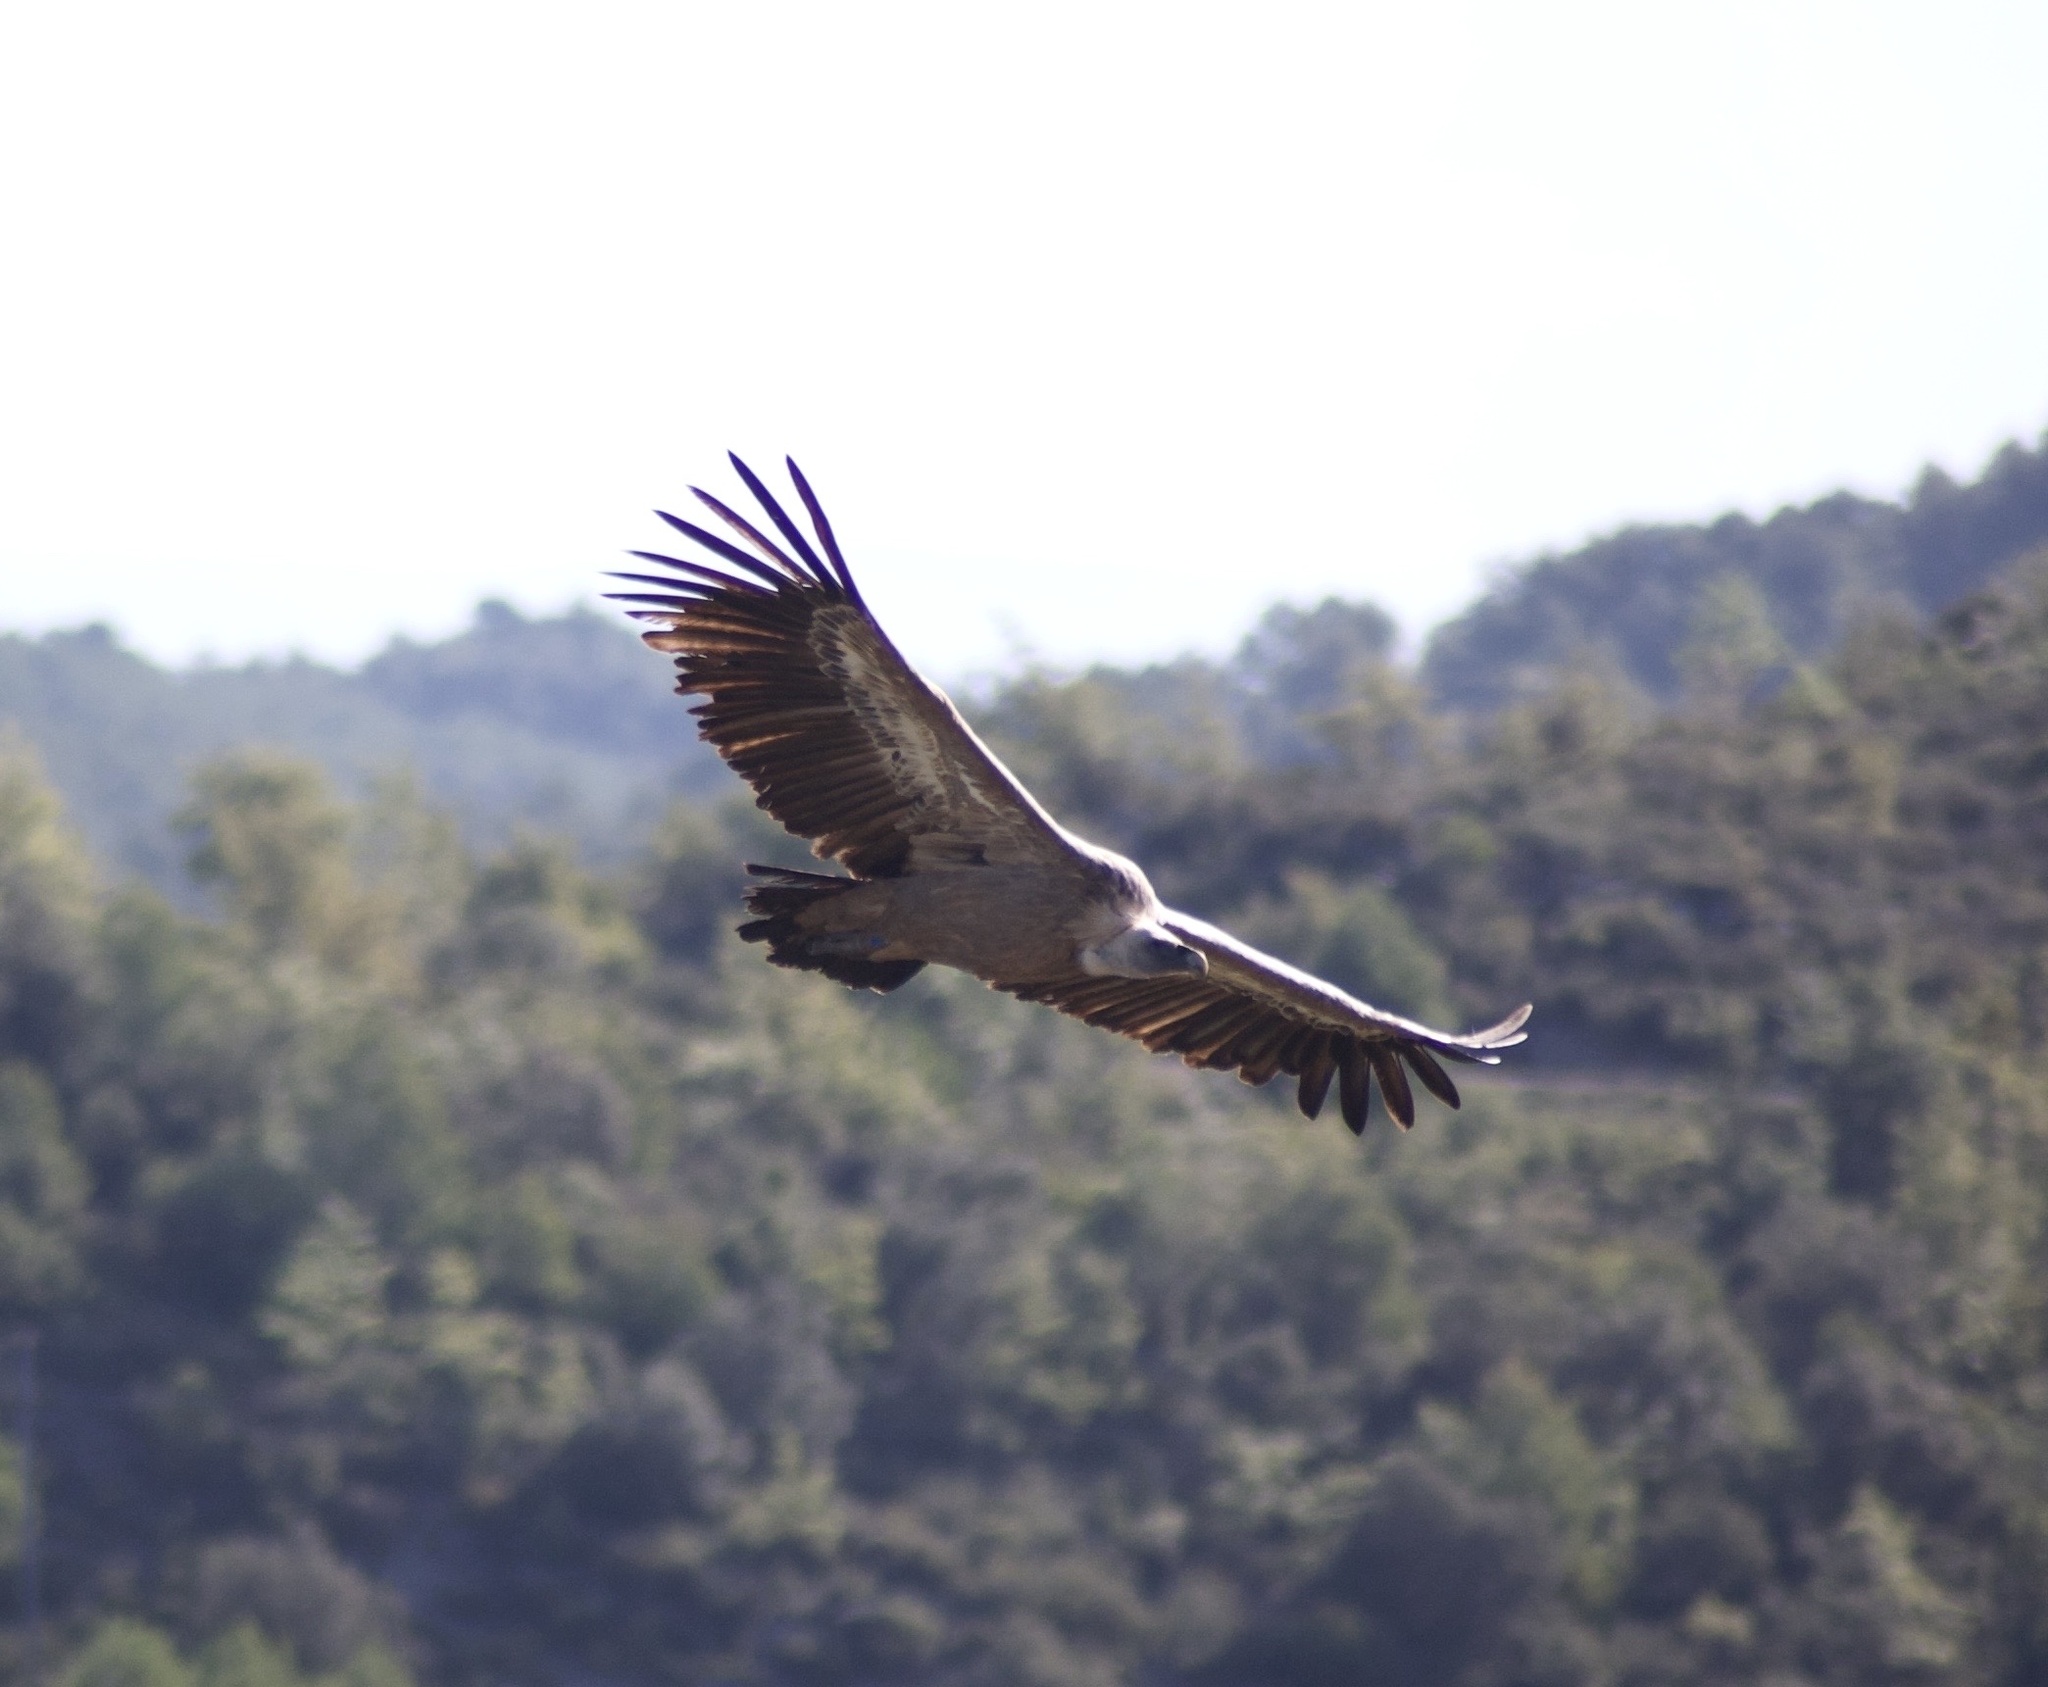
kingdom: Animalia
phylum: Chordata
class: Aves
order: Accipitriformes
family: Accipitridae
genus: Gyps
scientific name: Gyps fulvus
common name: Griffon vulture
